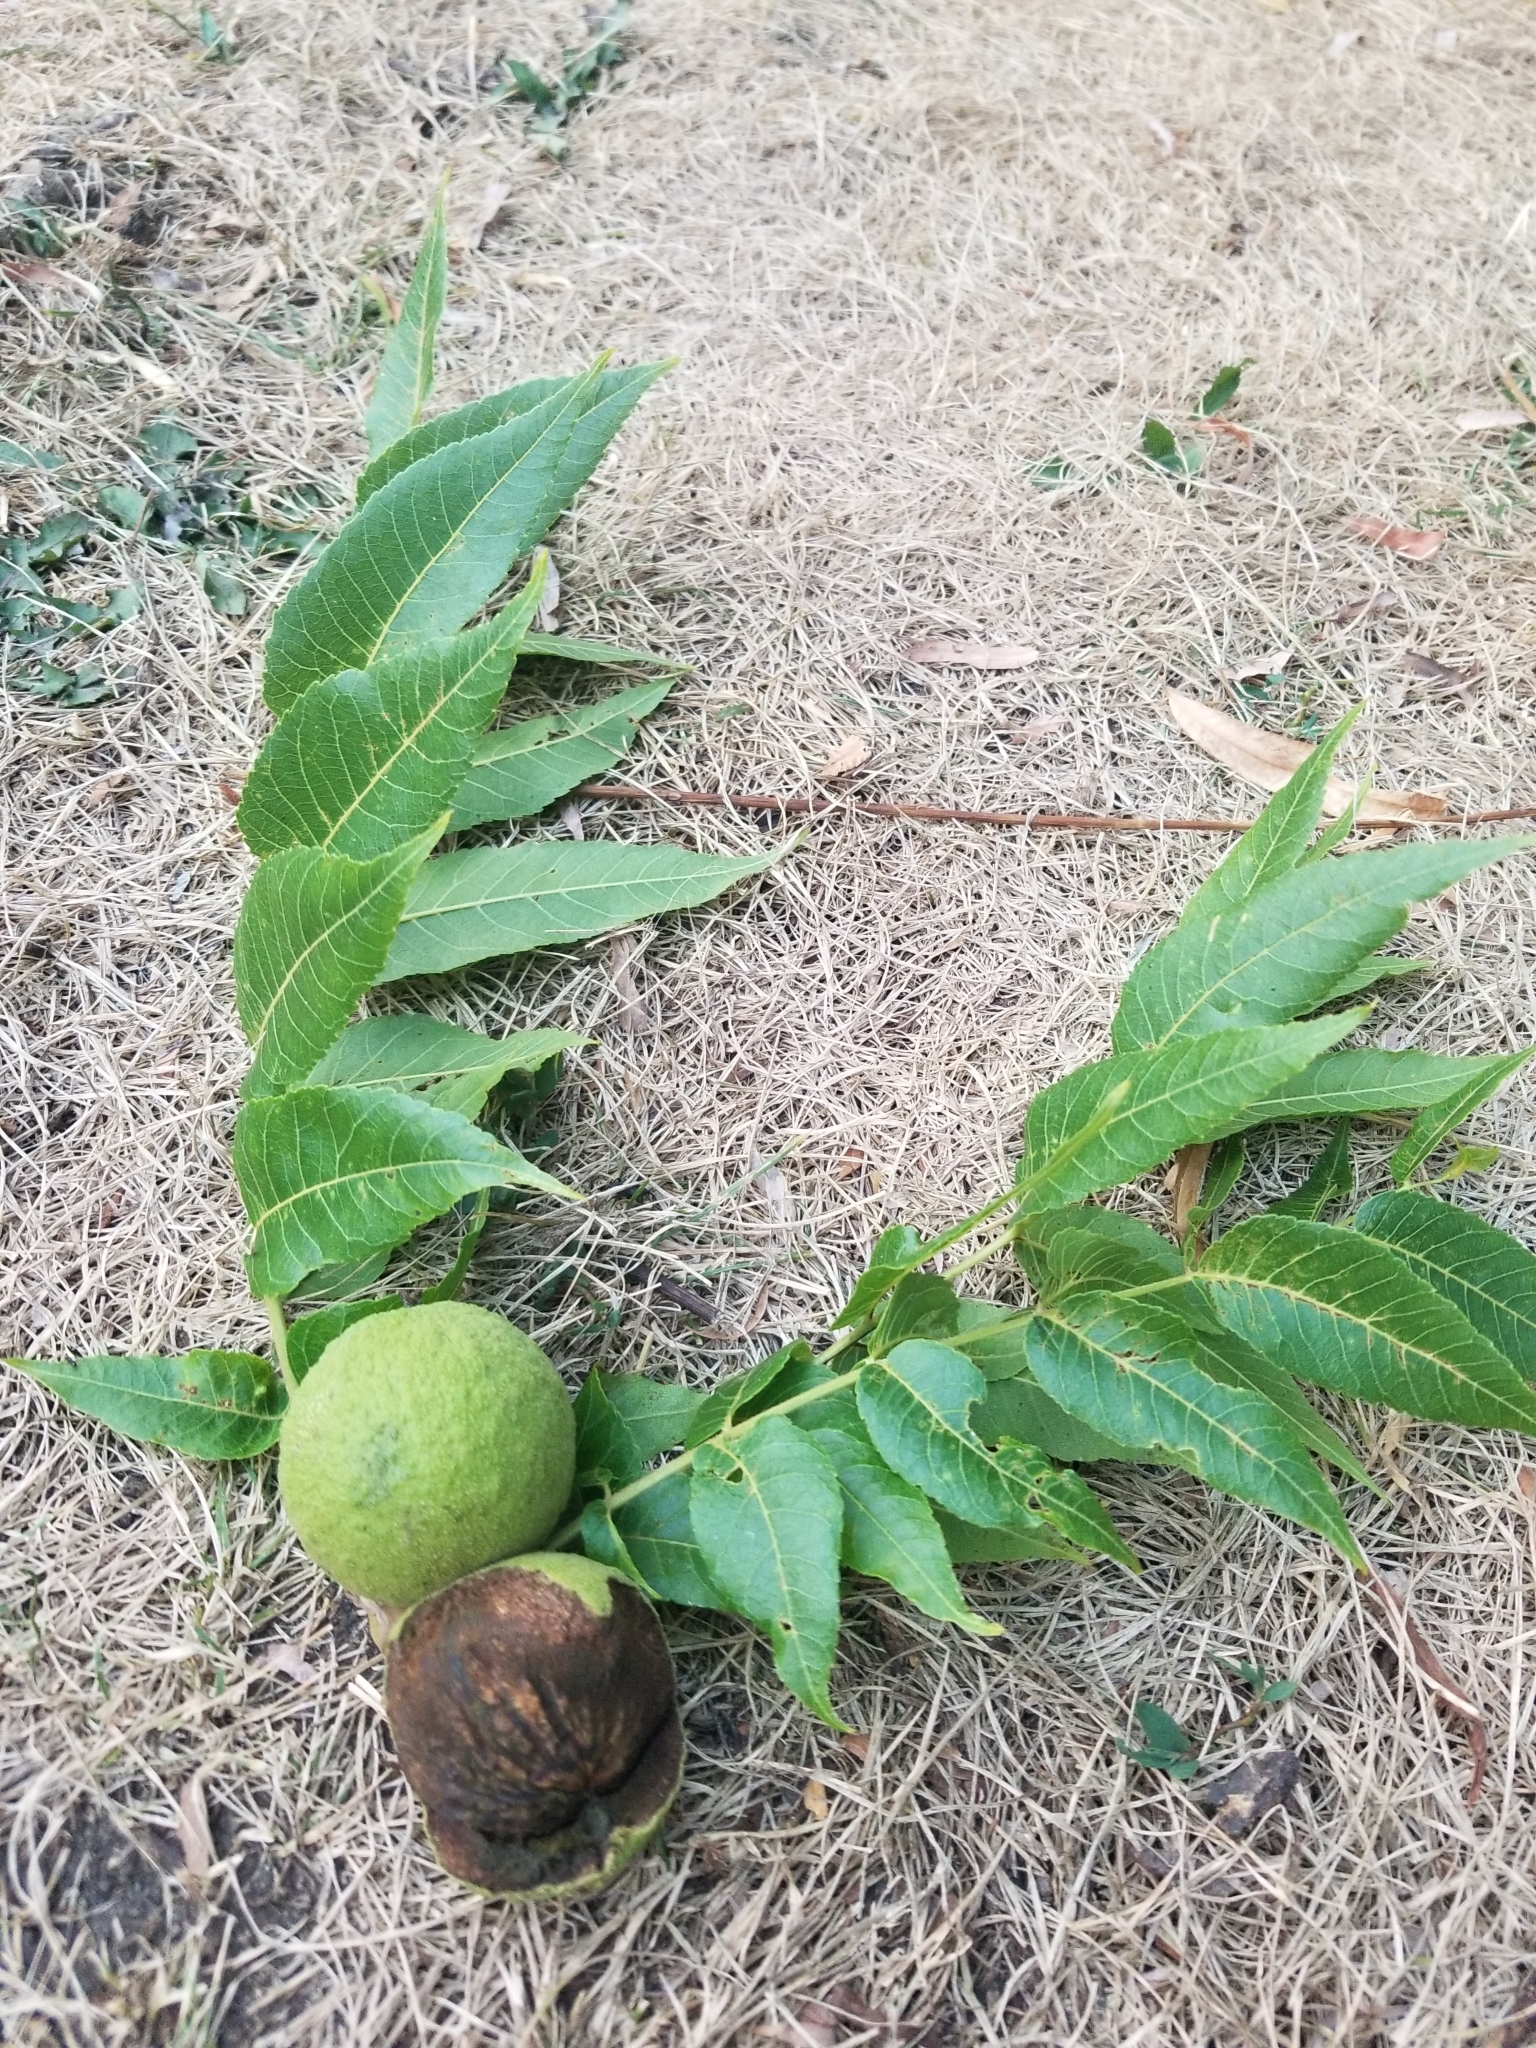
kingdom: Plantae
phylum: Tracheophyta
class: Magnoliopsida
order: Fagales
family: Juglandaceae
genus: Juglans
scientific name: Juglans nigra
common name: Black walnut
